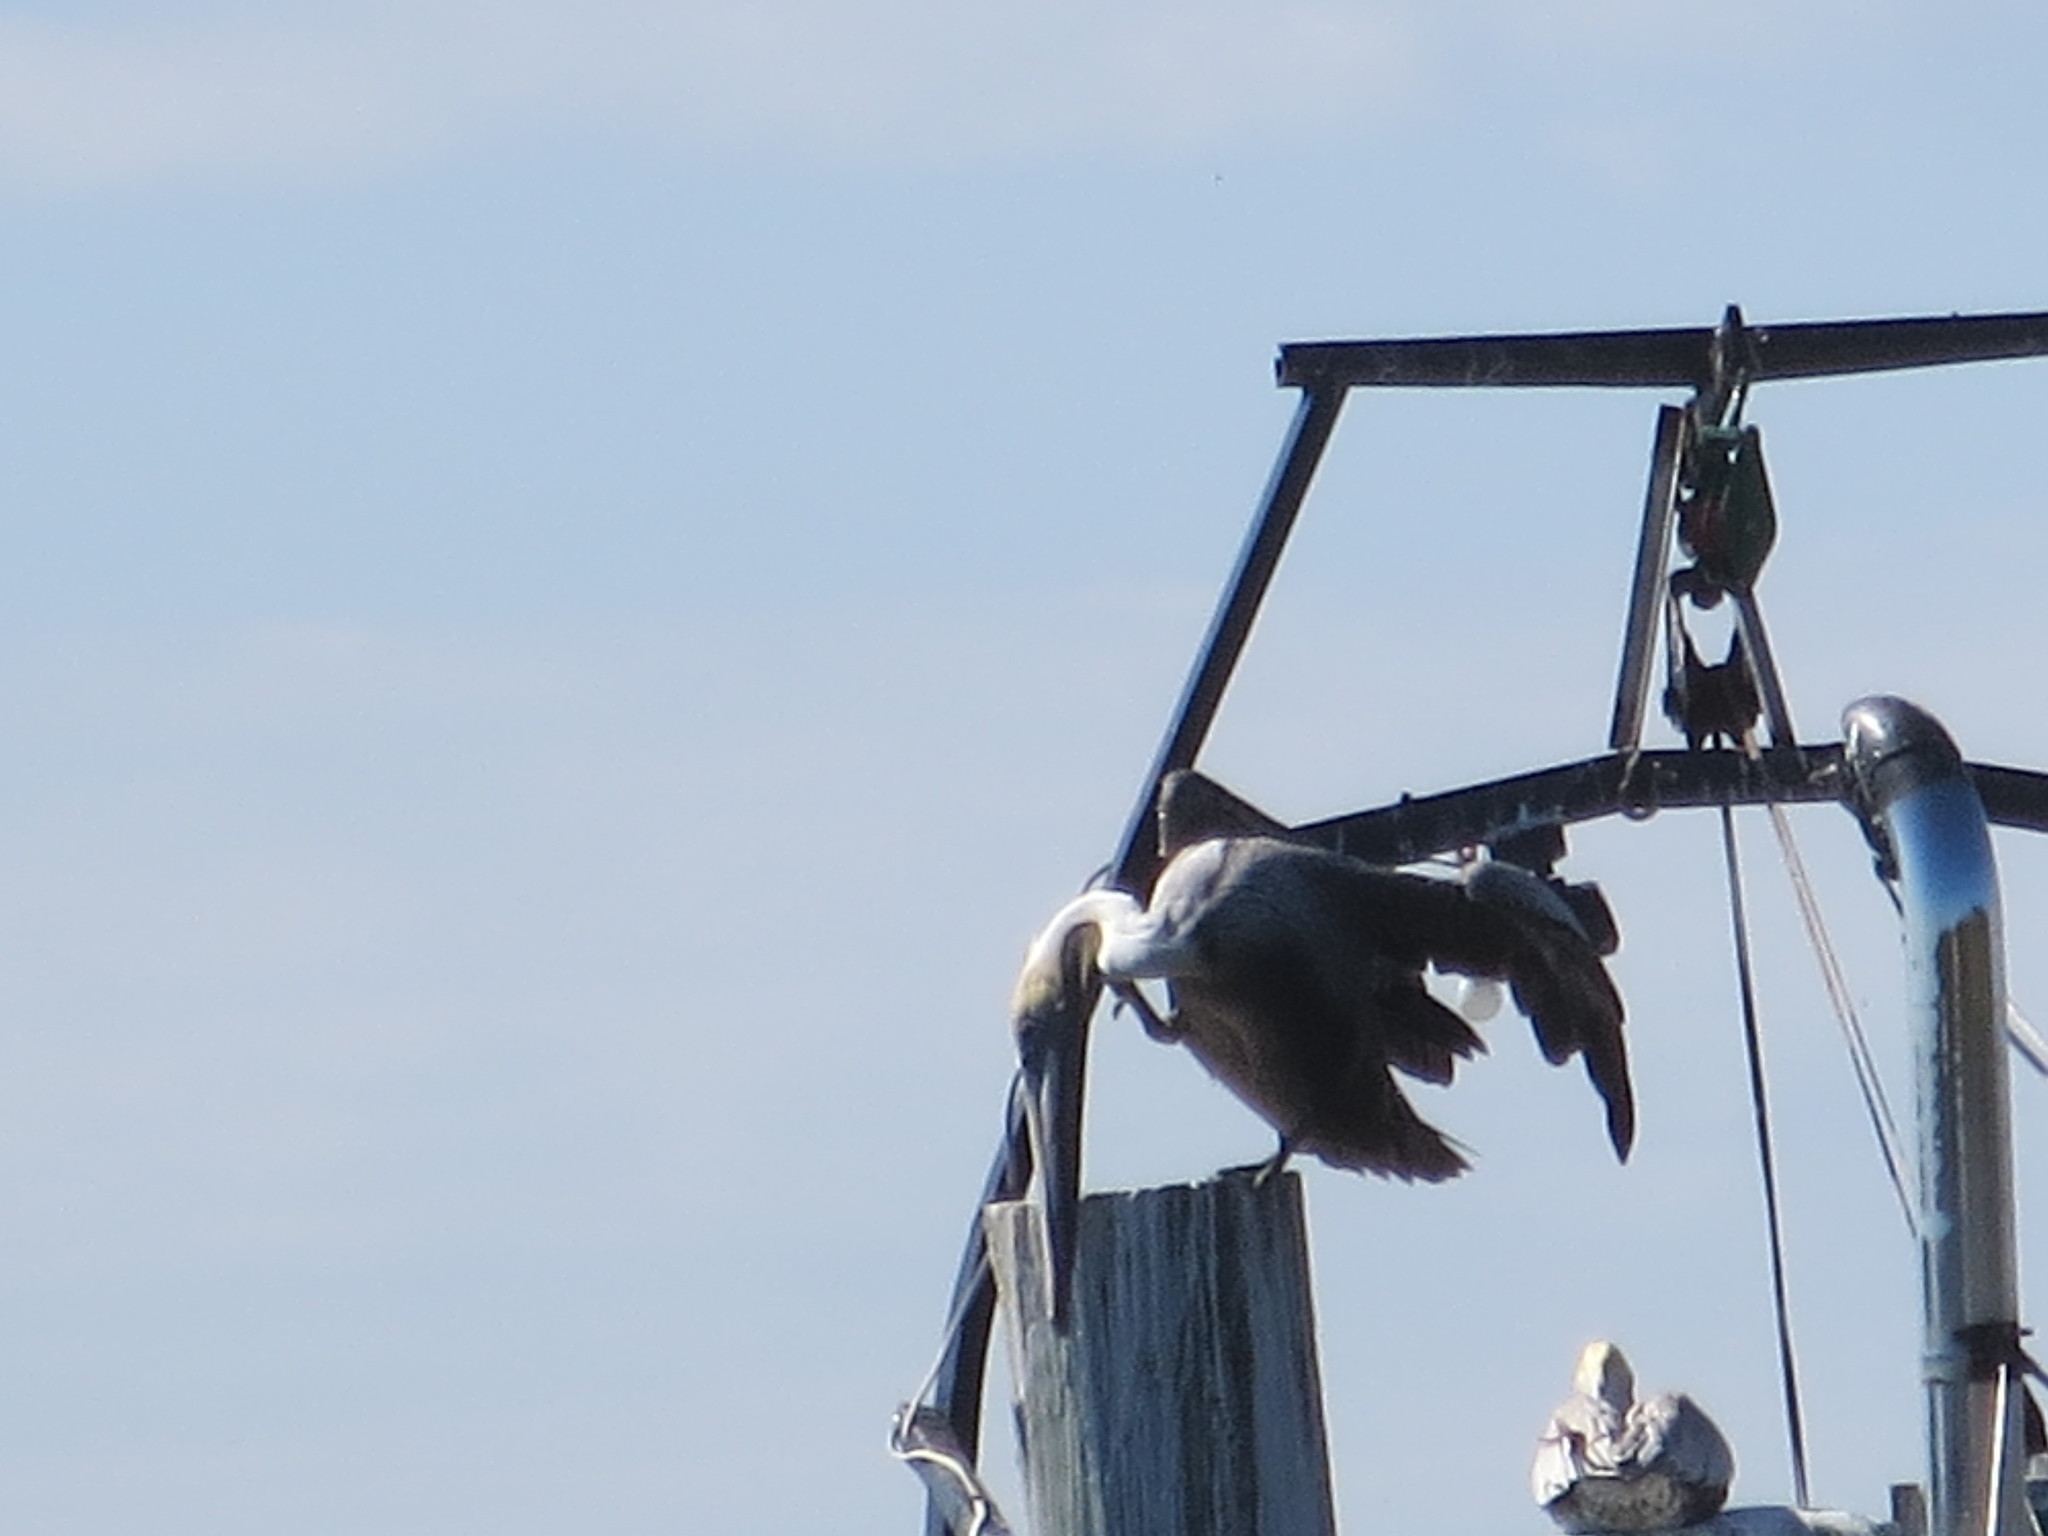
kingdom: Animalia
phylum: Chordata
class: Aves
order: Pelecaniformes
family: Pelecanidae
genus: Pelecanus
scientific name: Pelecanus occidentalis
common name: Brown pelican
